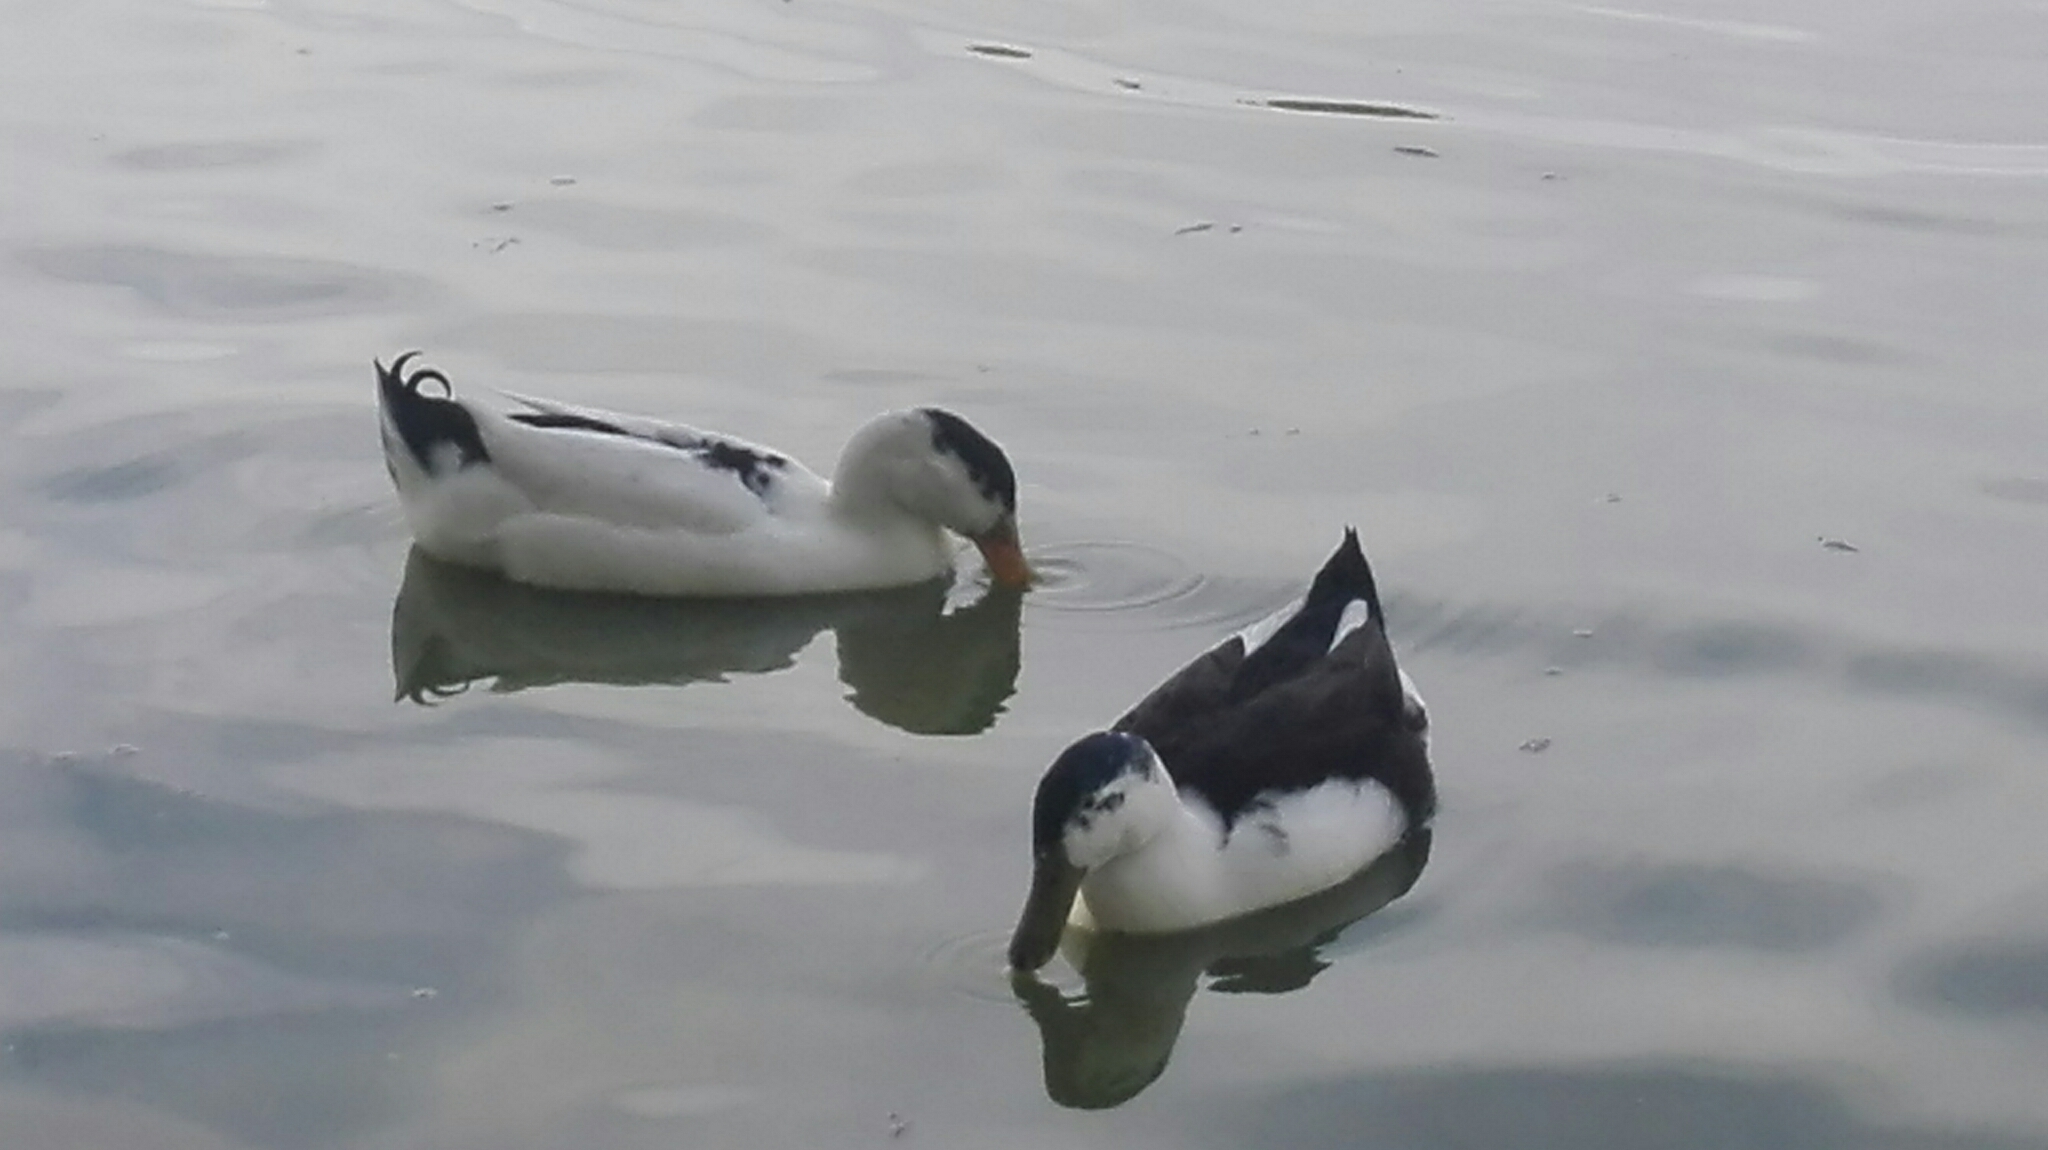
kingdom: Animalia
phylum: Chordata
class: Aves
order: Anseriformes
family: Anatidae
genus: Anas
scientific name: Anas platyrhynchos
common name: Mallard
